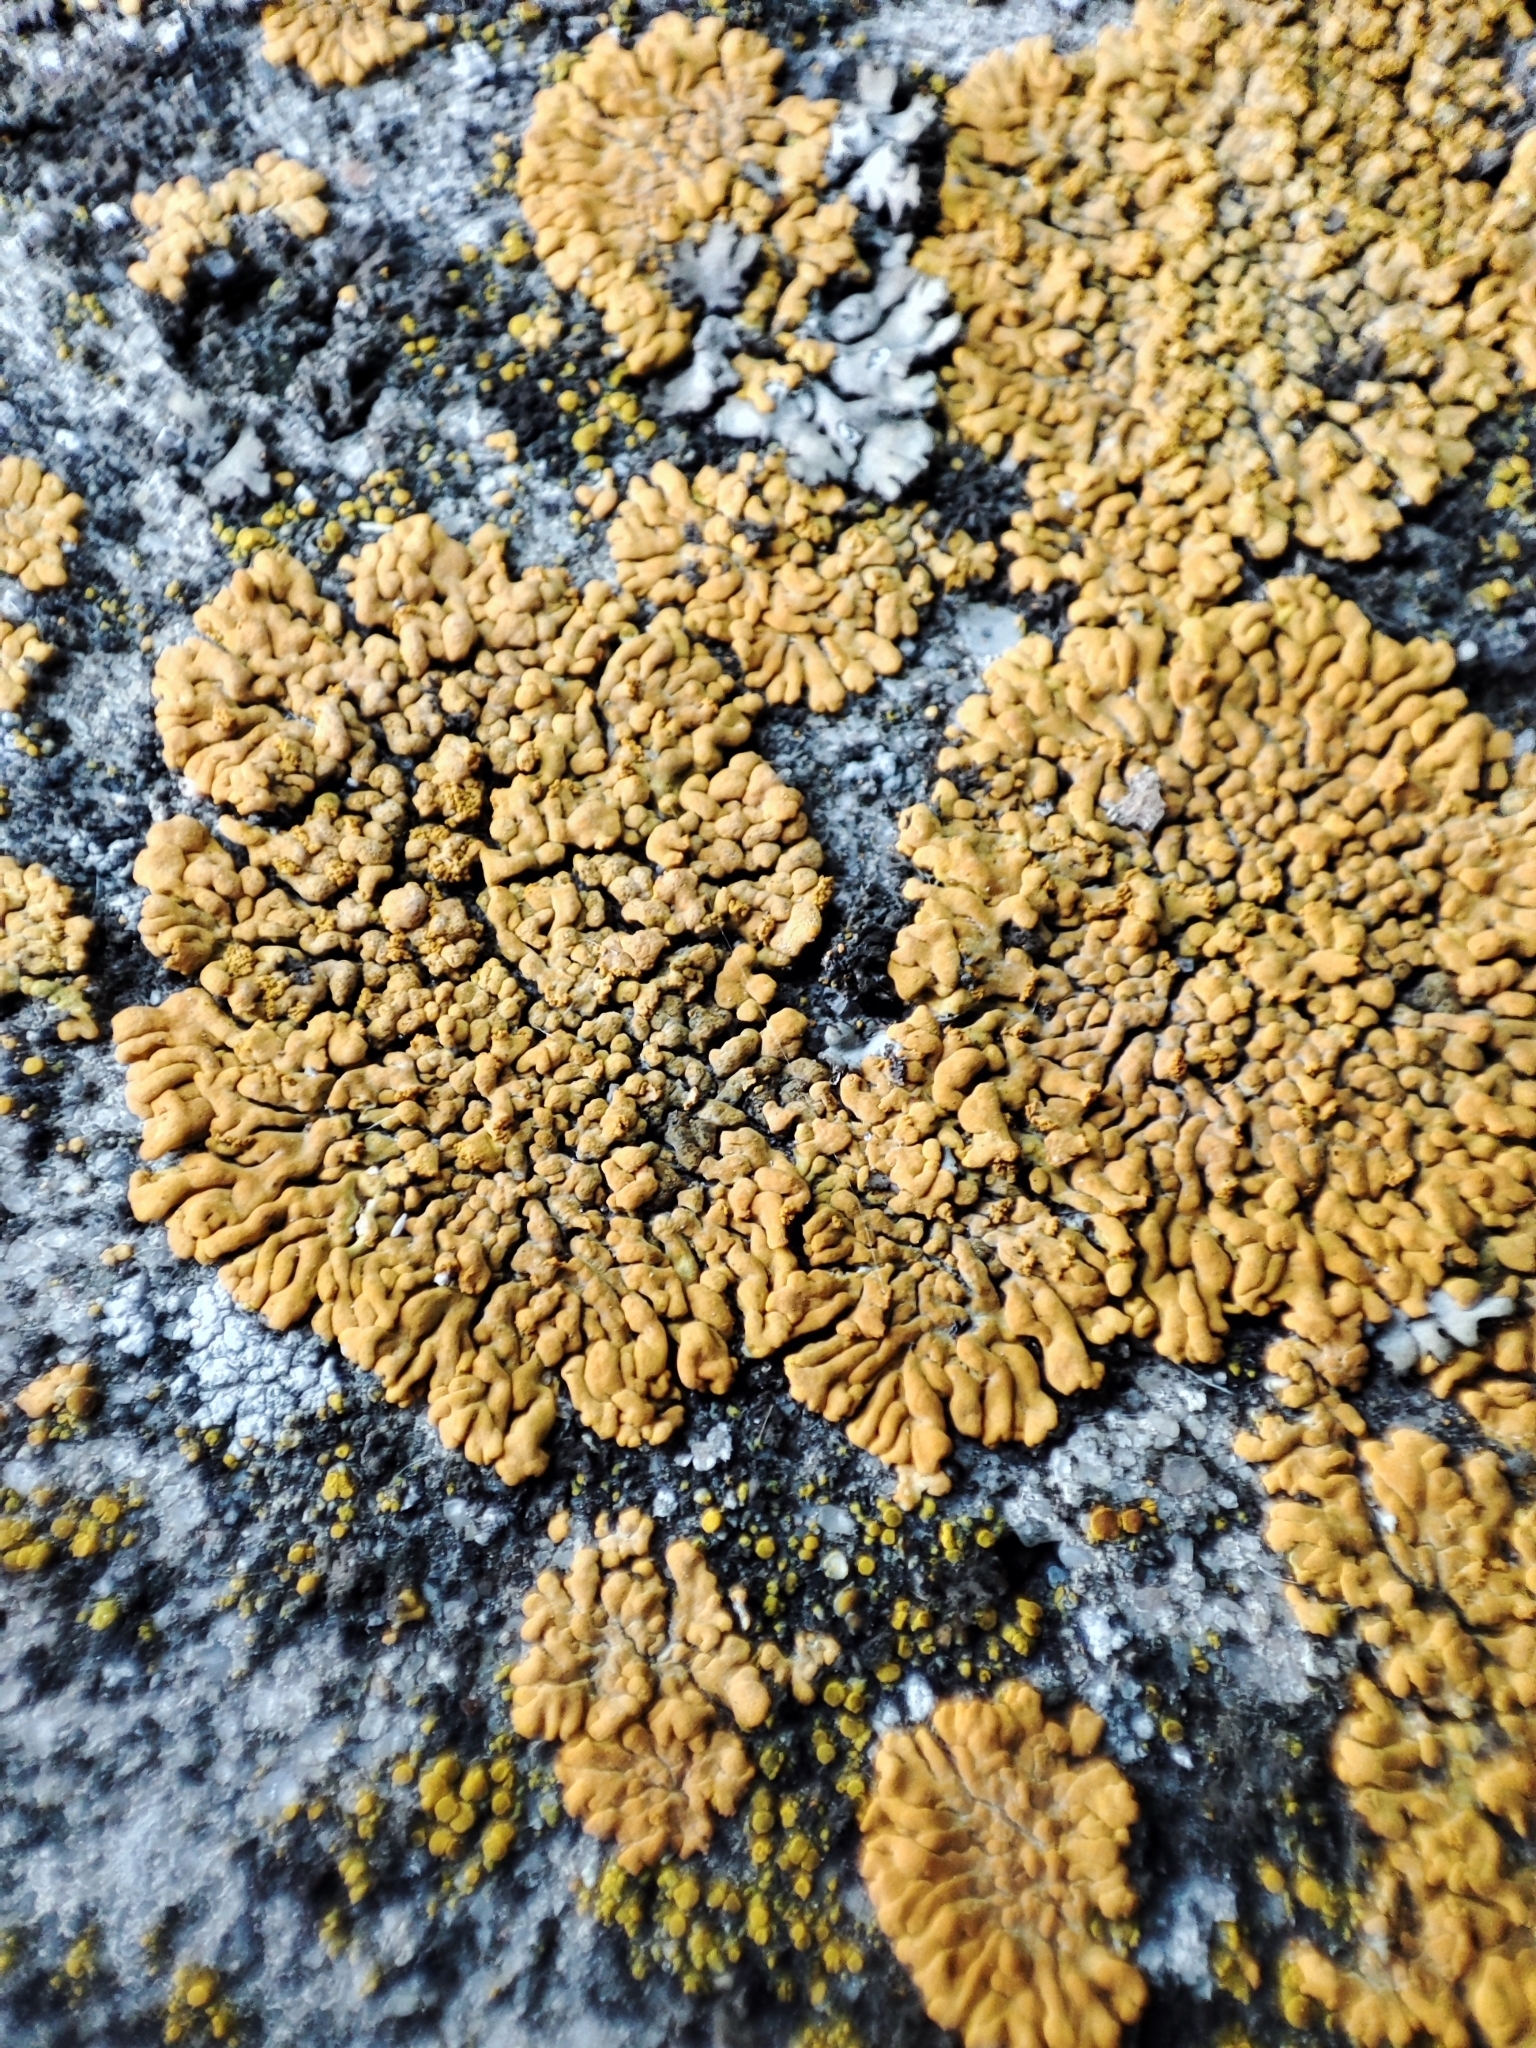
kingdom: Fungi
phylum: Ascomycota
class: Lecanoromycetes
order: Teloschistales
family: Teloschistaceae
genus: Calogaya
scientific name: Calogaya decipiens
